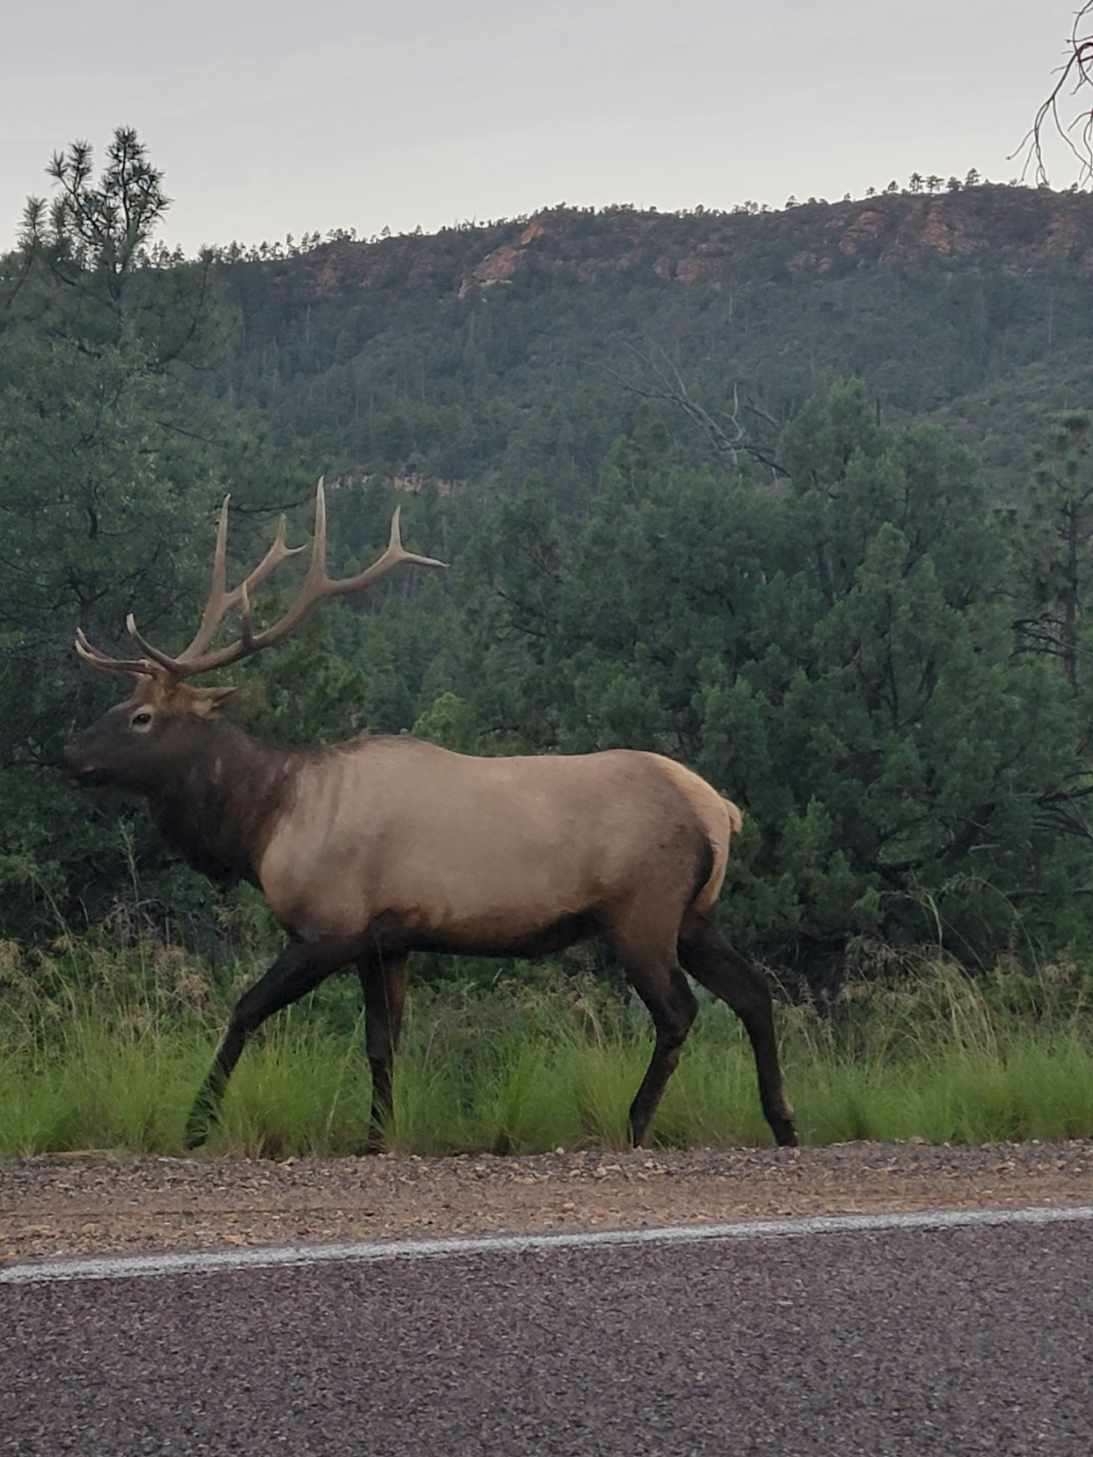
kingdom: Animalia
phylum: Chordata
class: Mammalia
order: Artiodactyla
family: Cervidae
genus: Cervus
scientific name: Cervus elaphus
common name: Red deer
